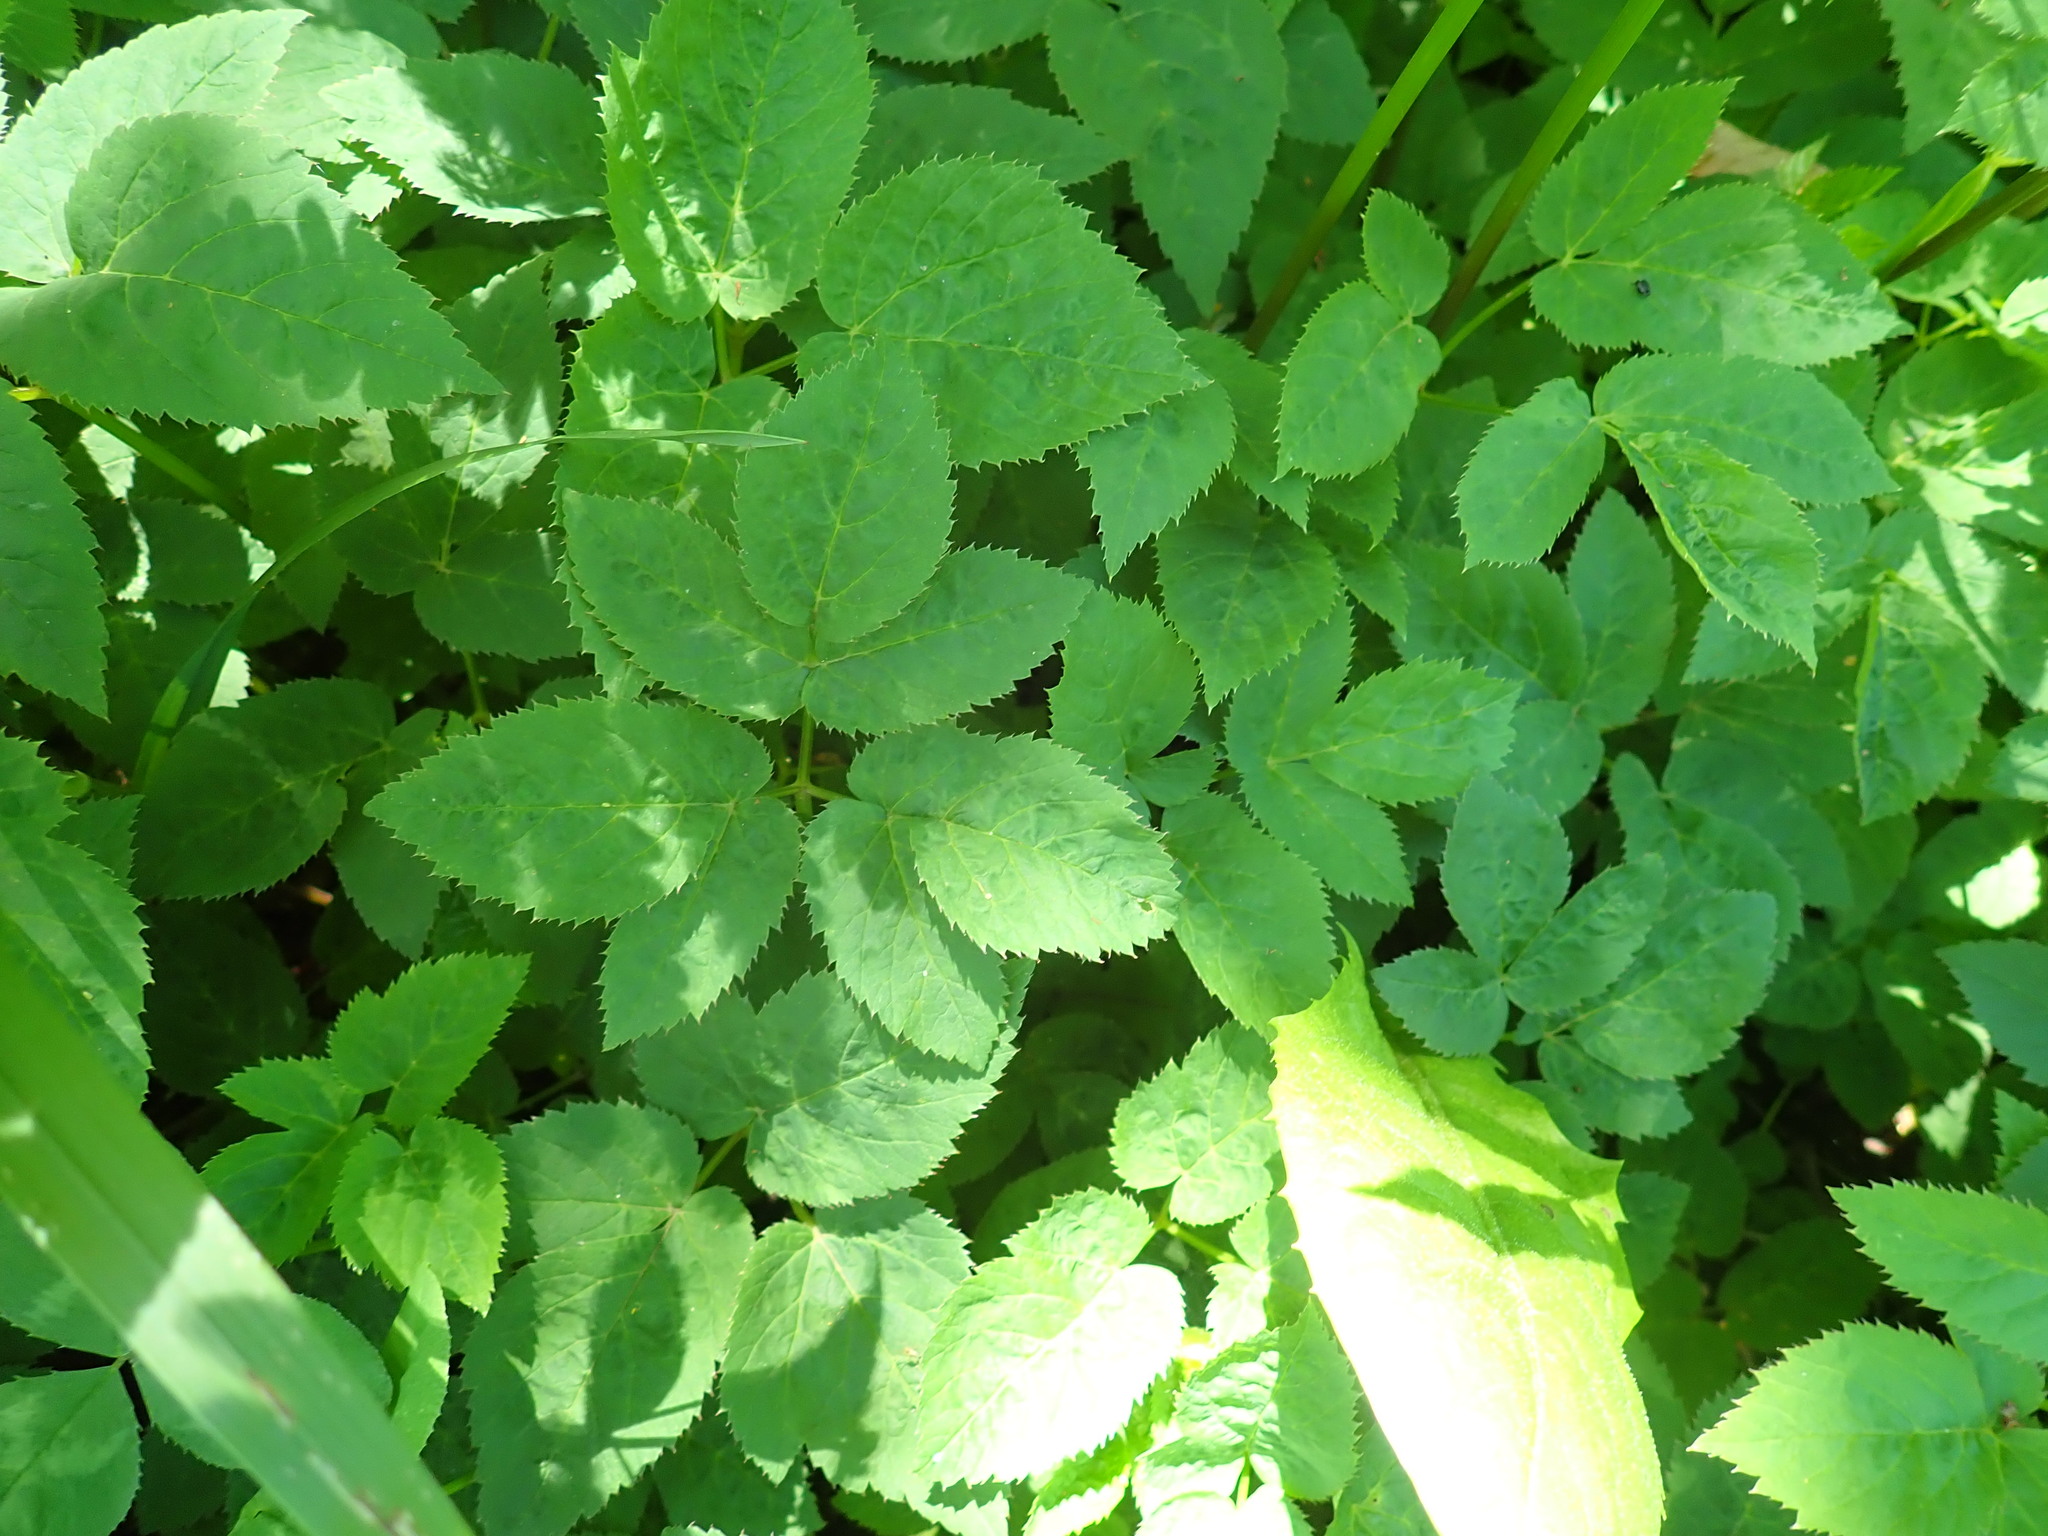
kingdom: Plantae
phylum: Tracheophyta
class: Magnoliopsida
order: Apiales
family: Apiaceae
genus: Aegopodium
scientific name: Aegopodium podagraria
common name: Ground-elder
